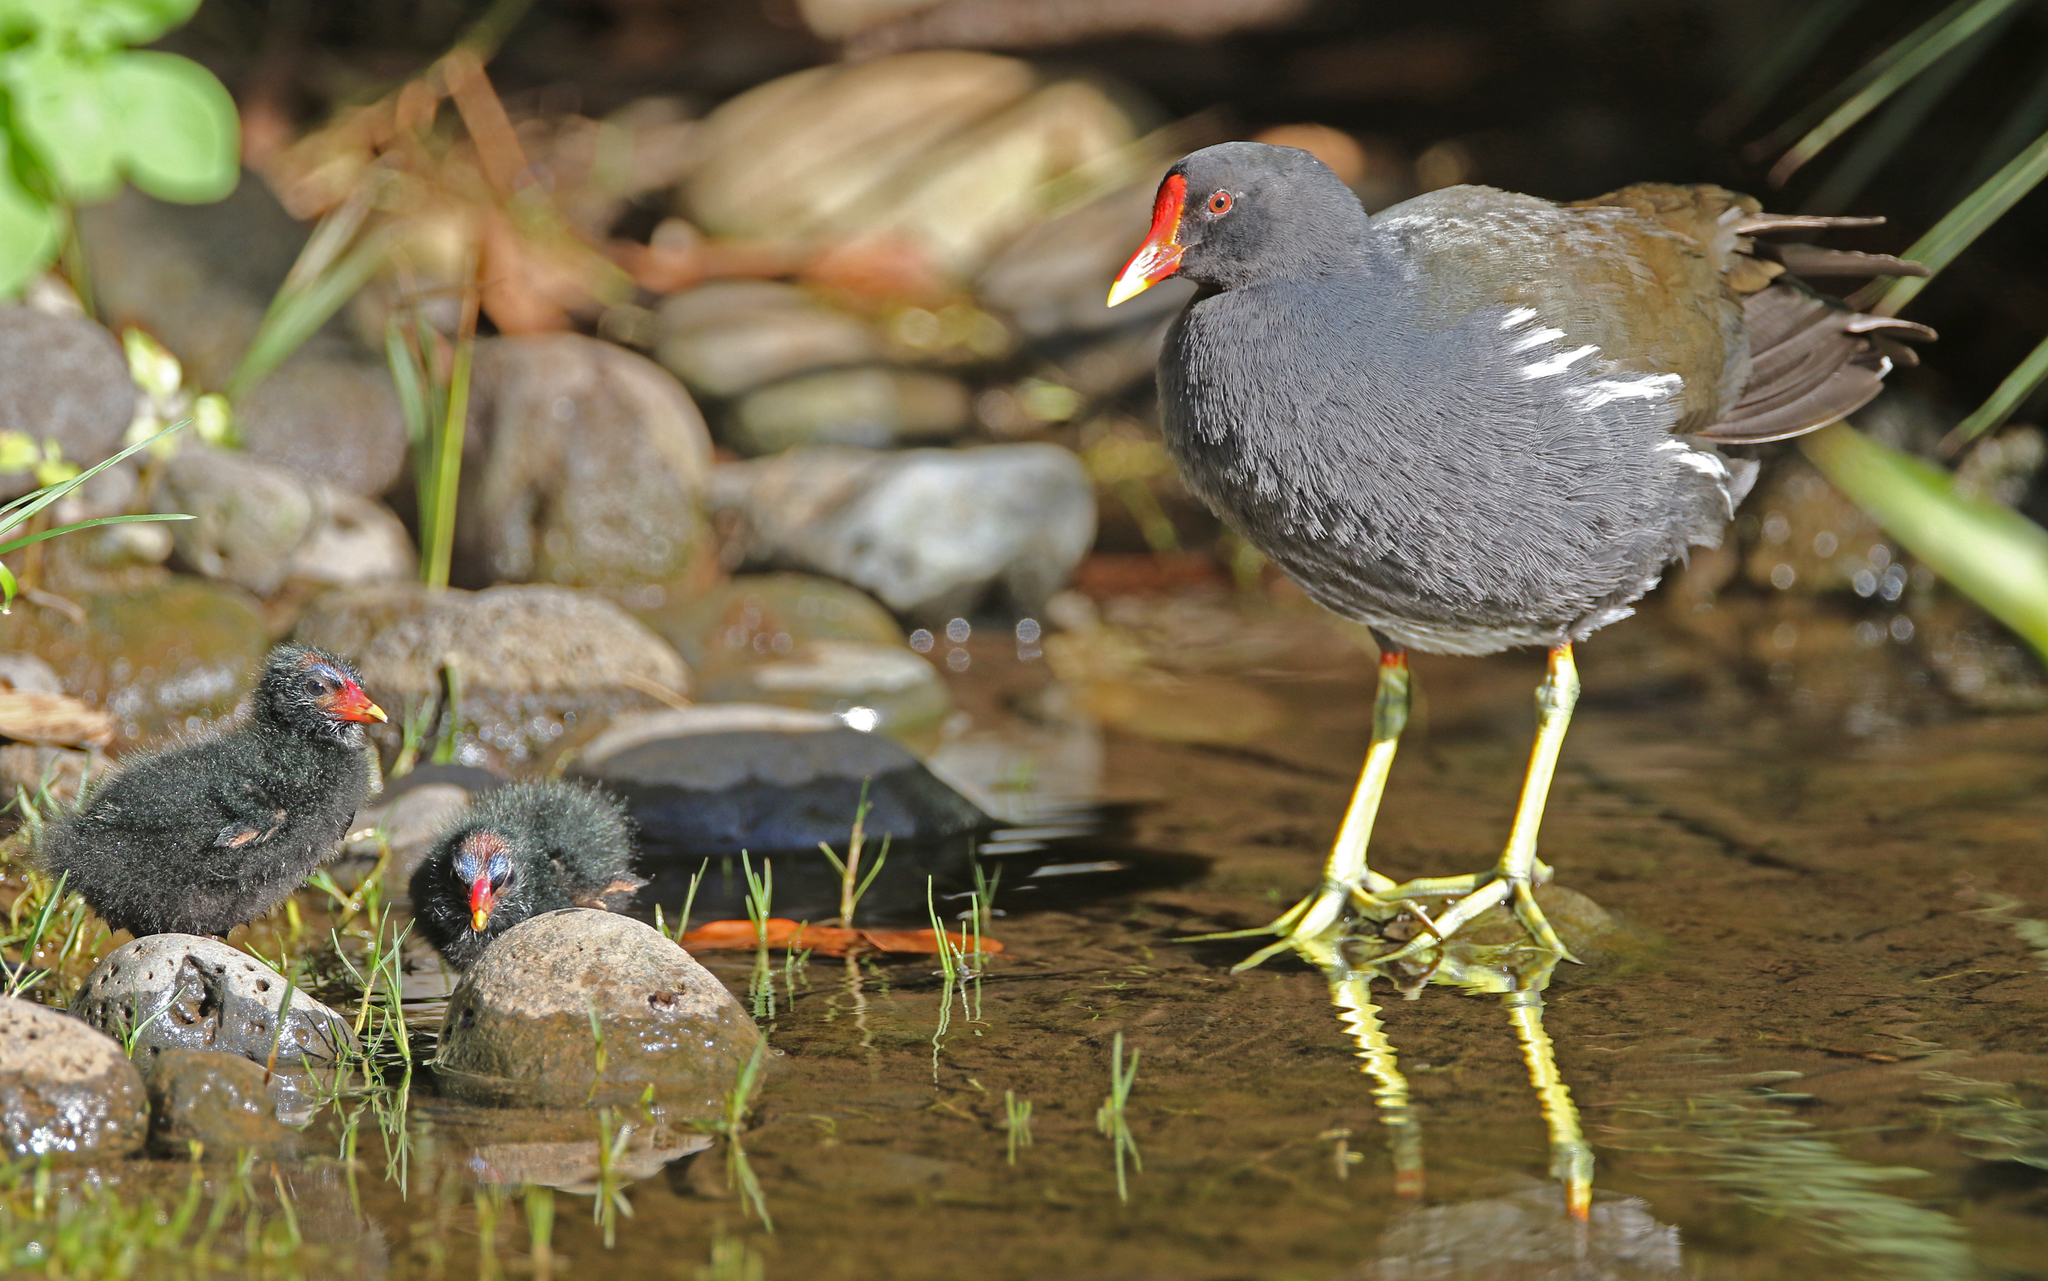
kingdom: Animalia
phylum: Chordata
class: Aves
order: Gruiformes
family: Rallidae
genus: Gallinula
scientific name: Gallinula chloropus
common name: Common moorhen
